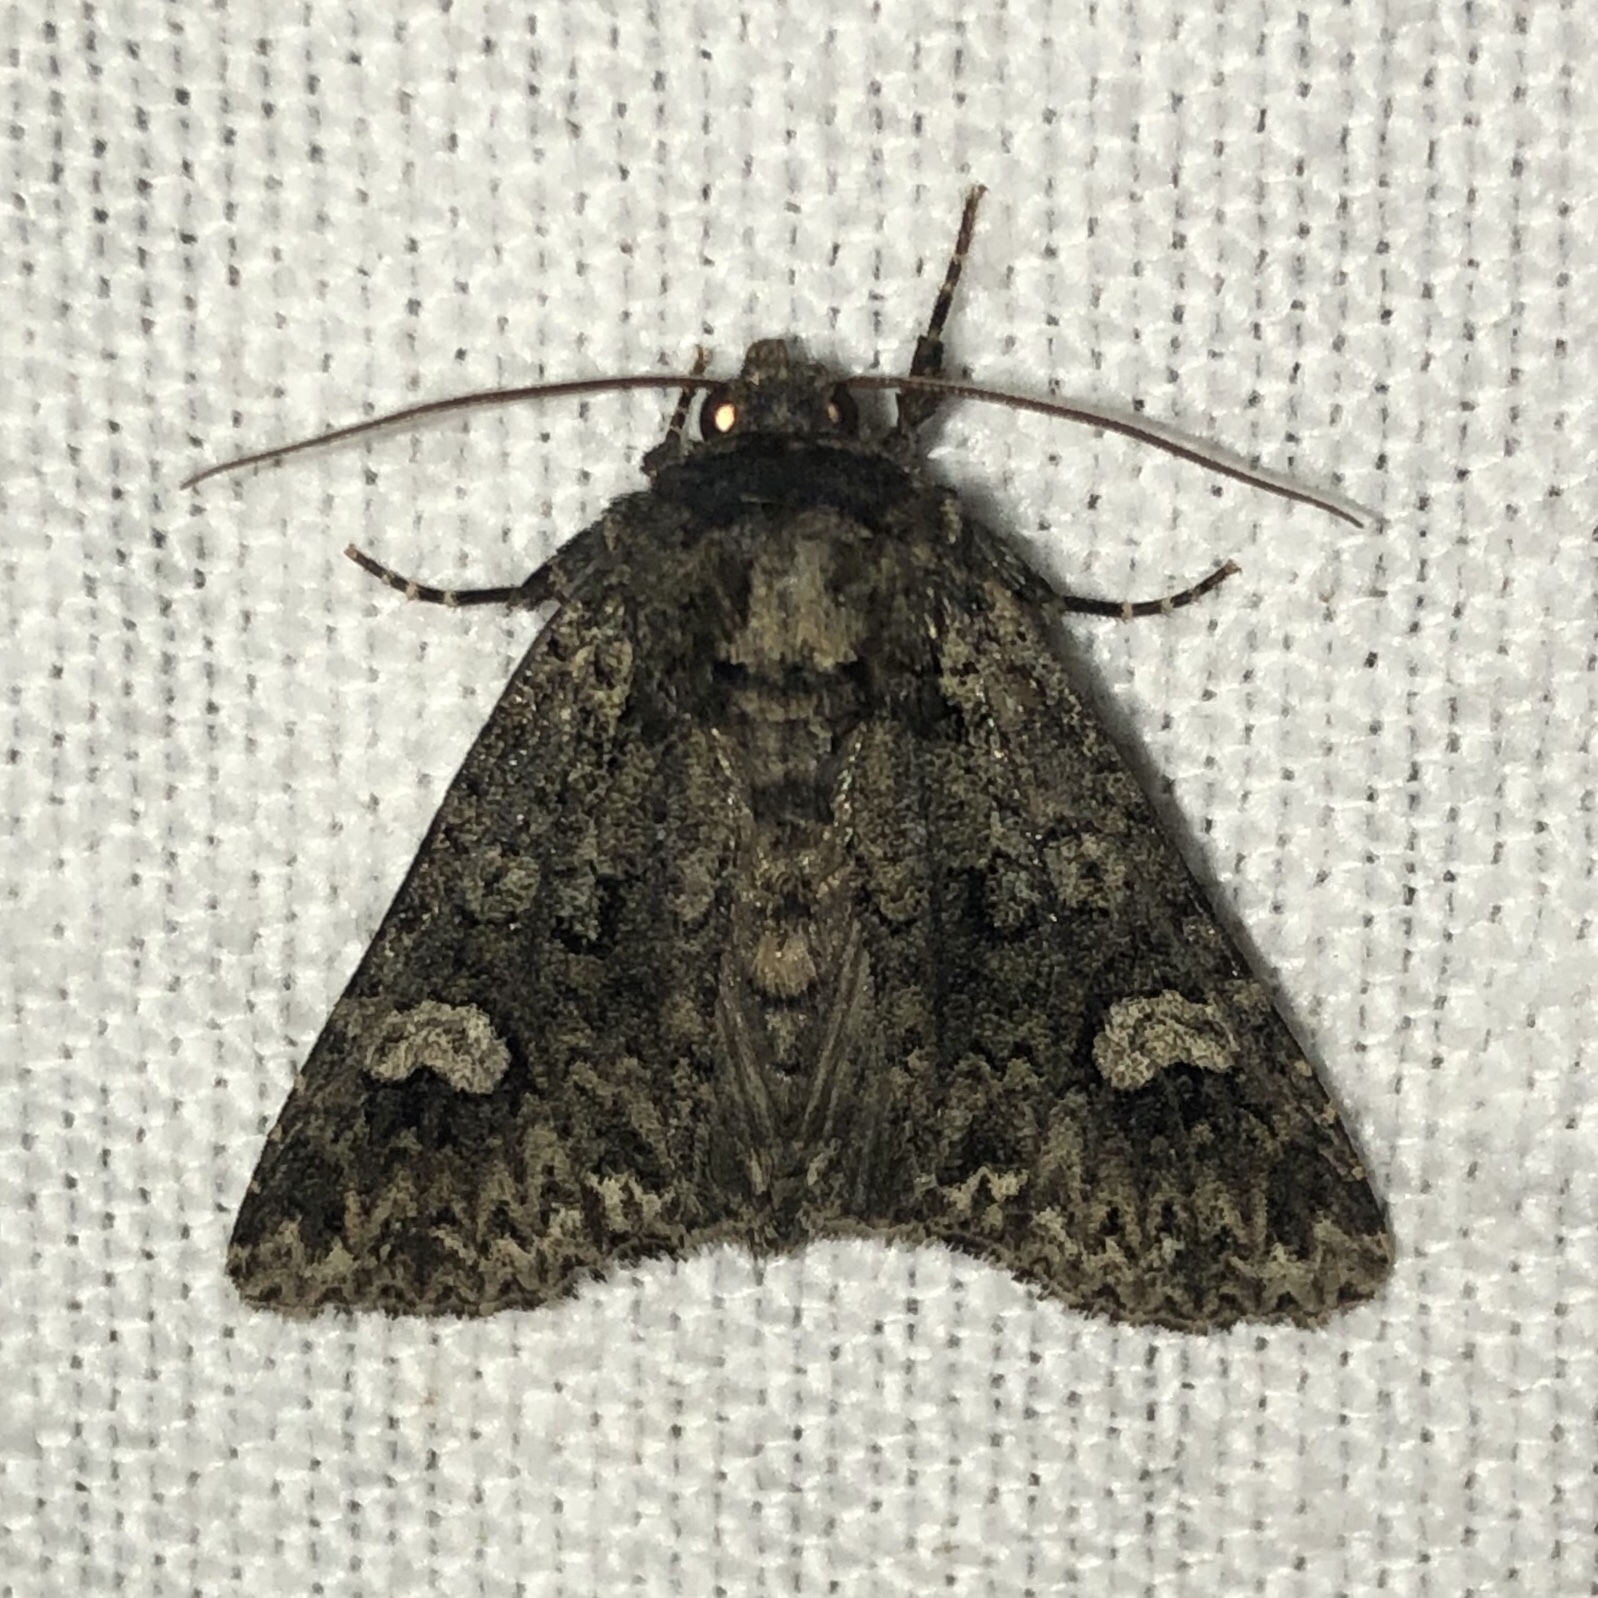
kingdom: Animalia
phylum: Arthropoda
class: Insecta
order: Lepidoptera
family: Noctuidae
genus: Melanchra
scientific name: Melanchra adjuncta
